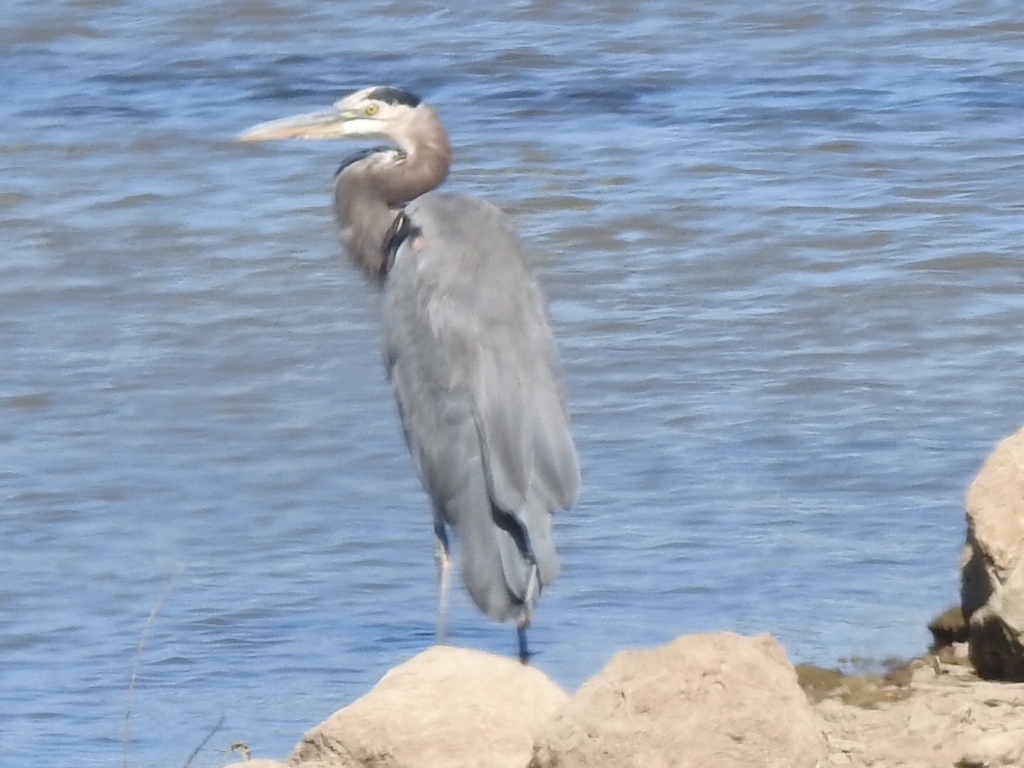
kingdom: Animalia
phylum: Chordata
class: Aves
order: Pelecaniformes
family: Ardeidae
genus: Ardea
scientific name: Ardea herodias
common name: Great blue heron
